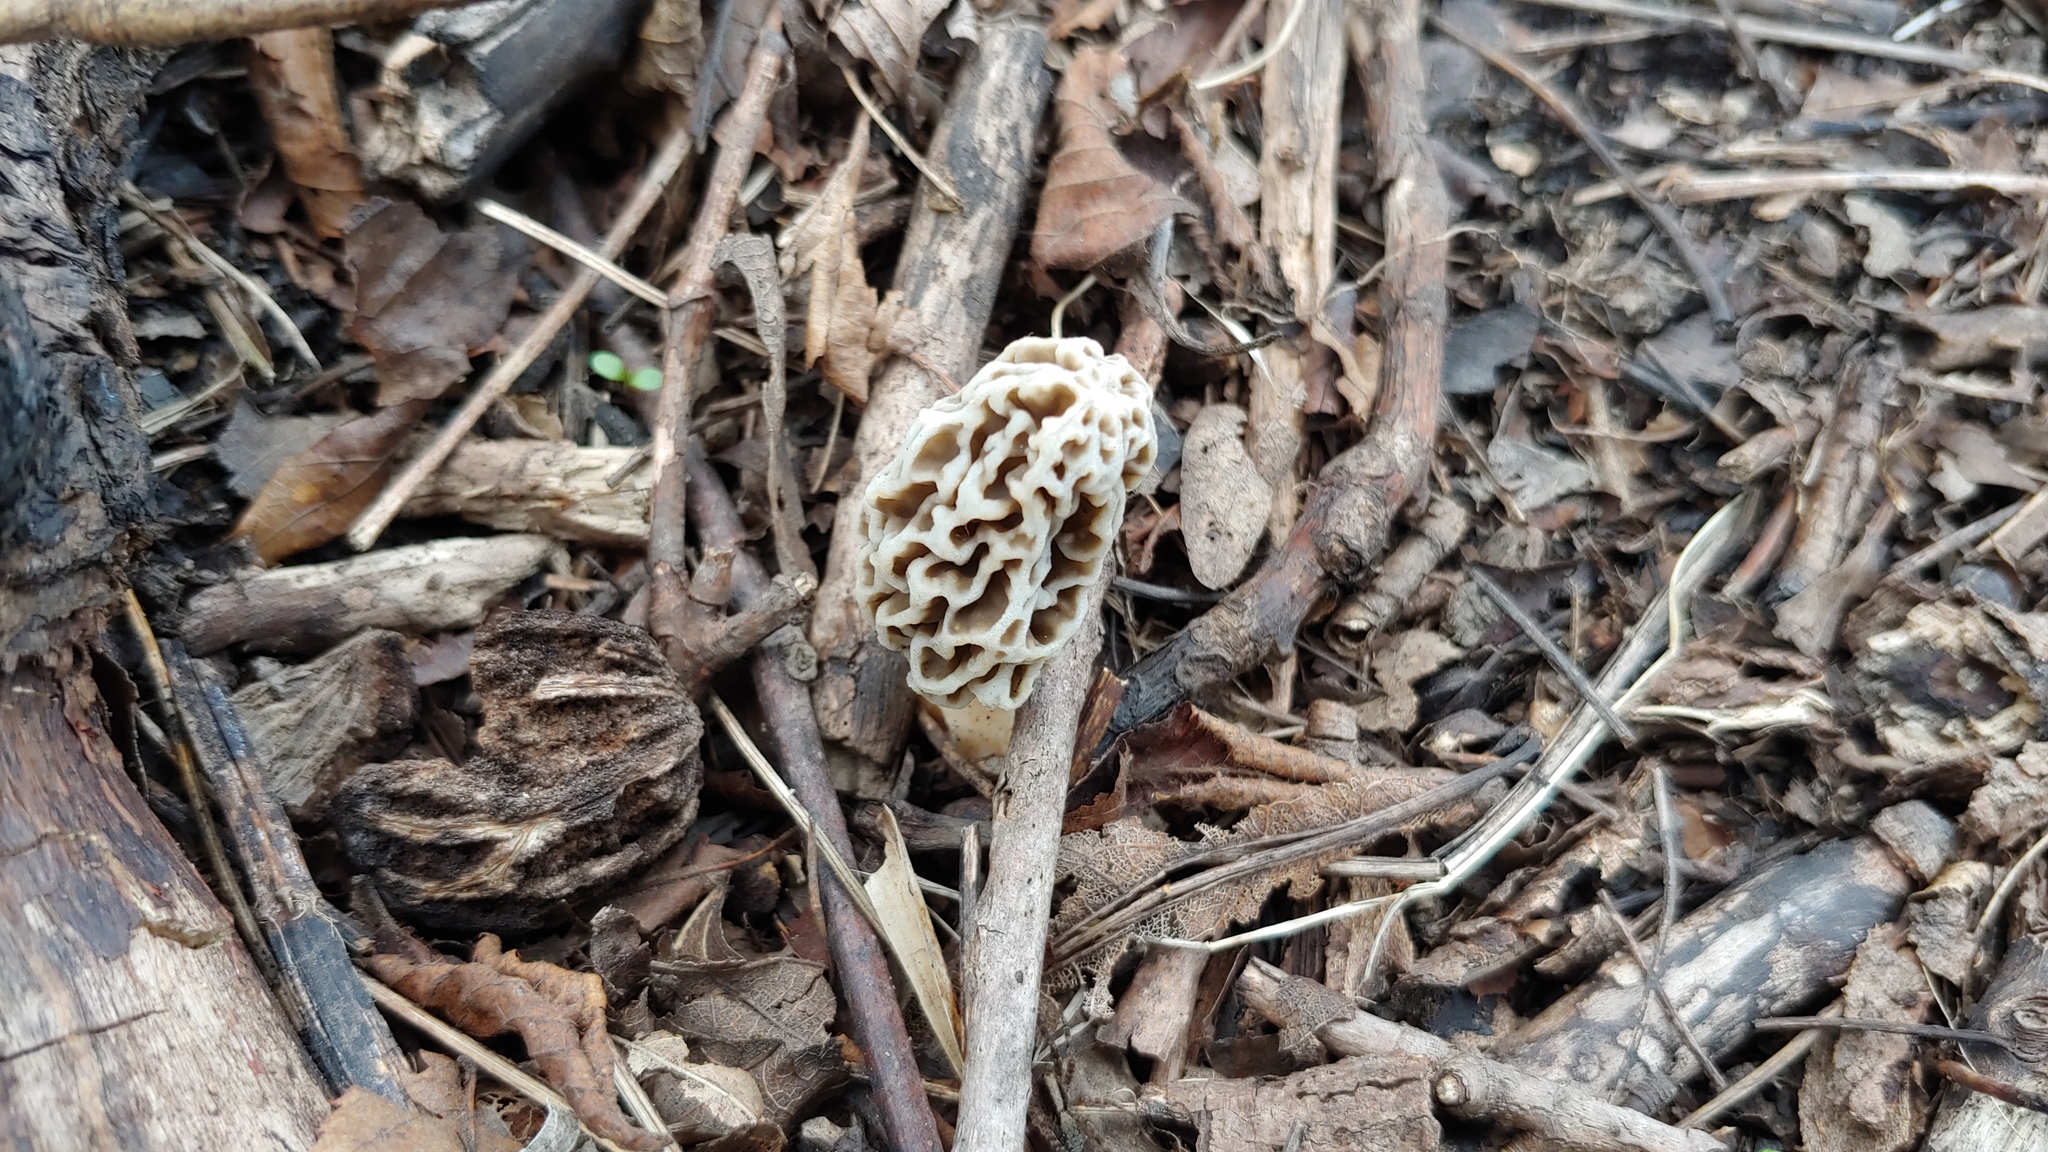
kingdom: Fungi
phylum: Ascomycota
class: Pezizomycetes
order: Pezizales
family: Morchellaceae
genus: Morchella
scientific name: Morchella americana
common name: White morel
